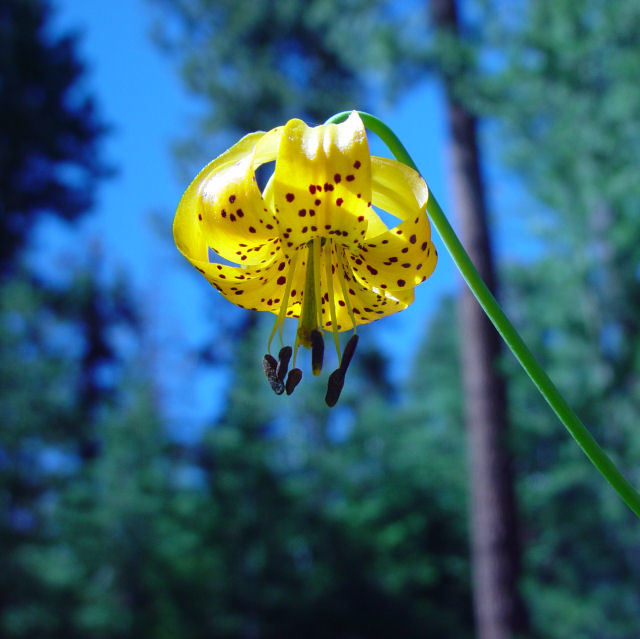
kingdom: Plantae
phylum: Tracheophyta
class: Liliopsida
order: Liliales
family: Liliaceae
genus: Lilium
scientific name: Lilium kelleyanum
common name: Kelley's lily
